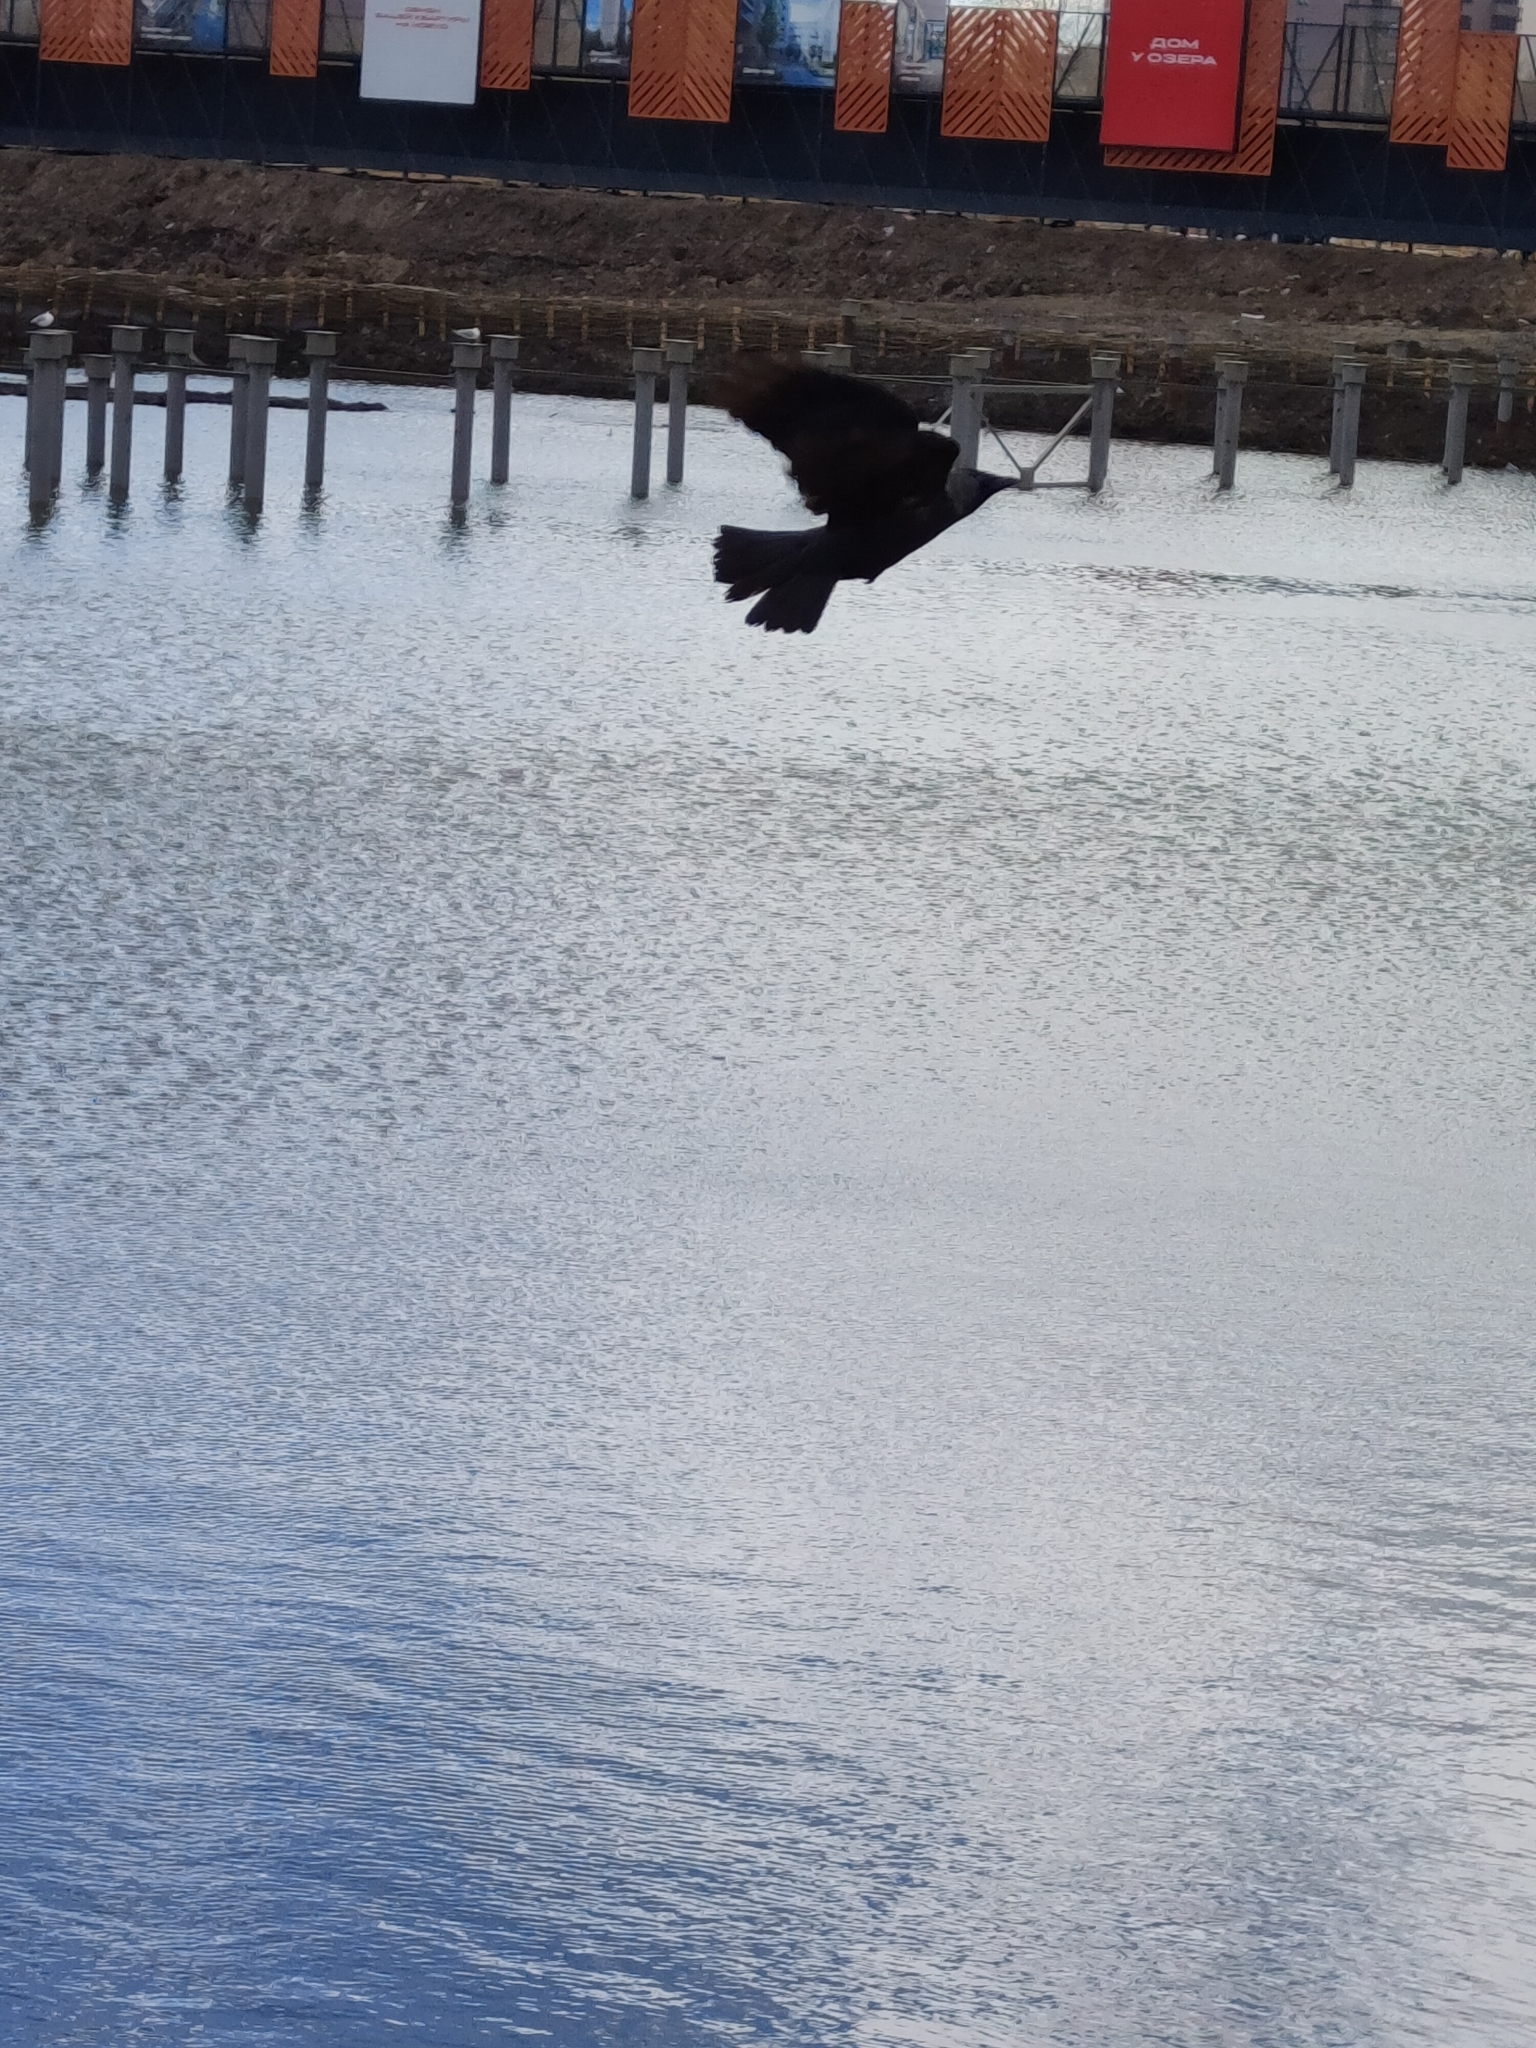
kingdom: Animalia
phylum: Chordata
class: Aves
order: Passeriformes
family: Corvidae
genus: Coloeus
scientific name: Coloeus monedula
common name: Western jackdaw
